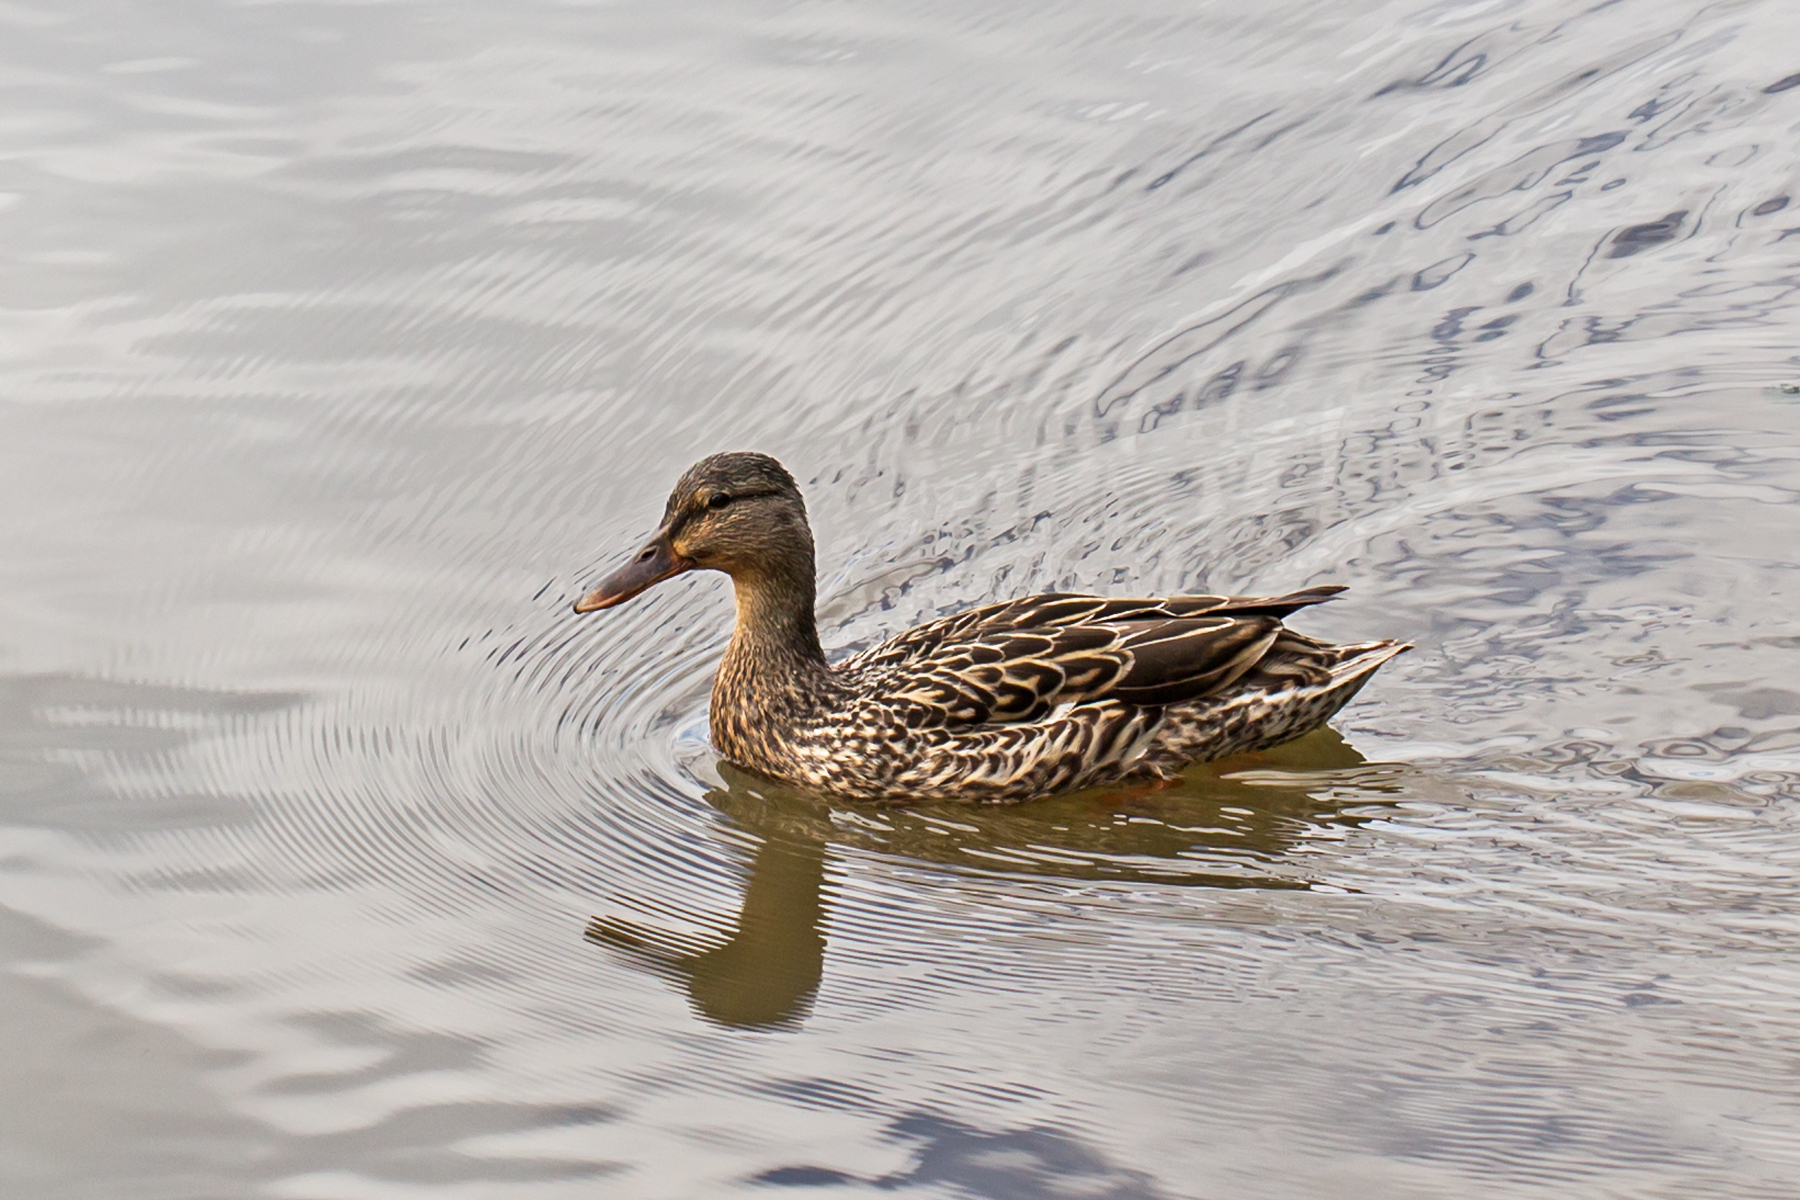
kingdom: Animalia
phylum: Chordata
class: Aves
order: Anseriformes
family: Anatidae
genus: Anas
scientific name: Anas platyrhynchos
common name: Mallard
